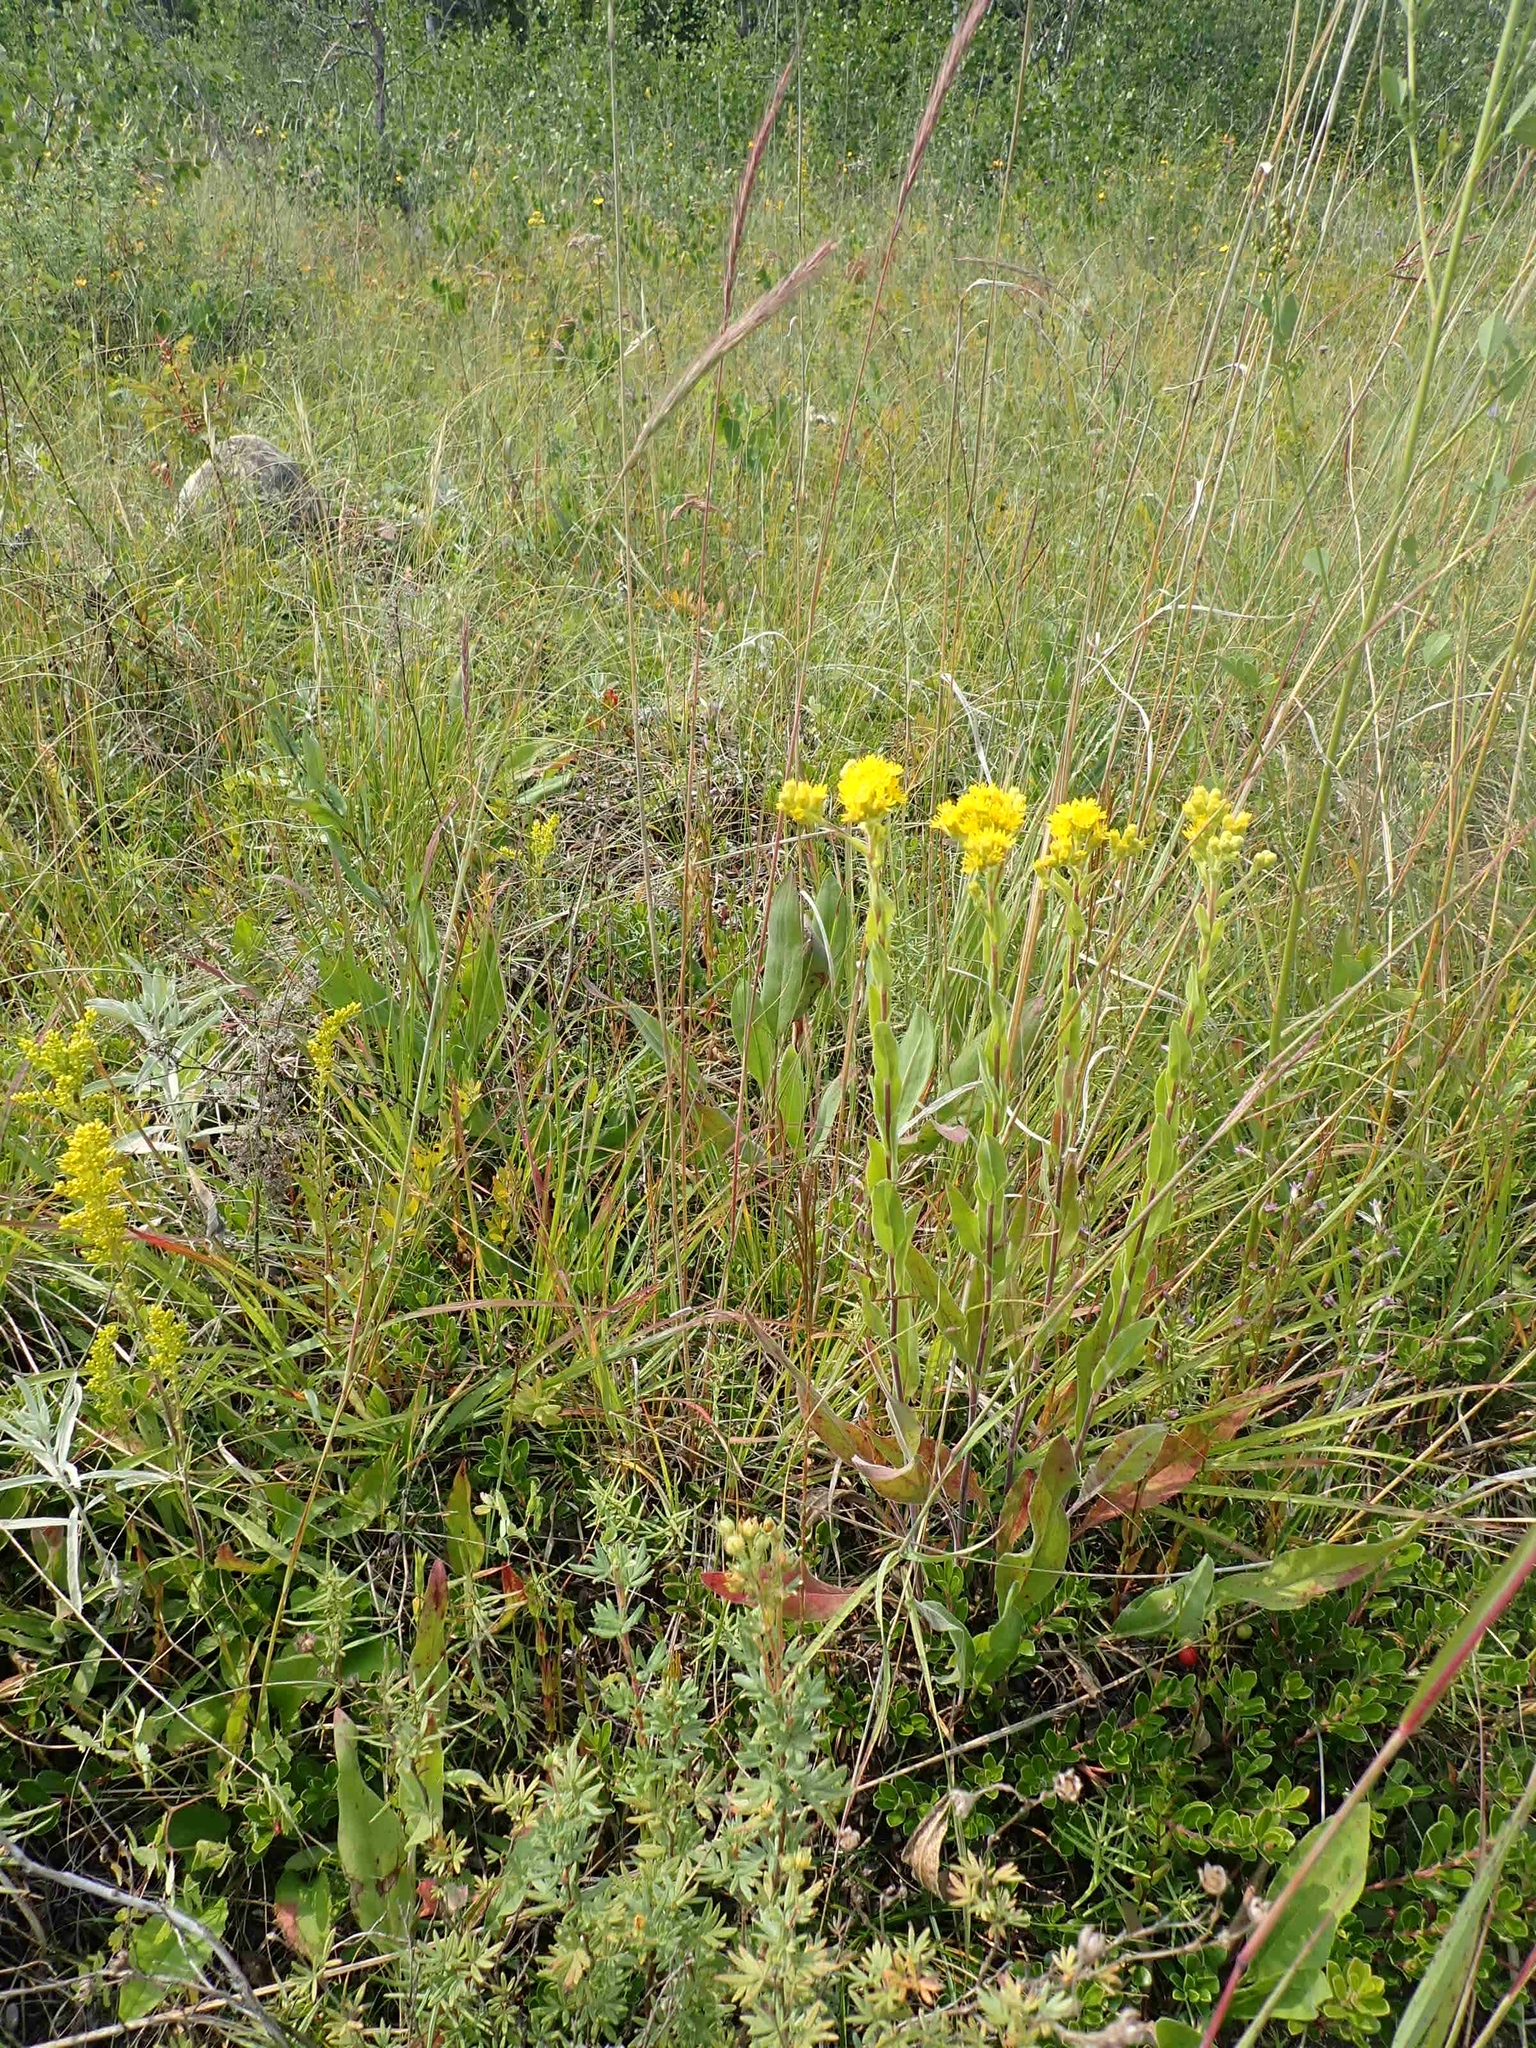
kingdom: Plantae
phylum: Tracheophyta
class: Magnoliopsida
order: Asterales
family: Asteraceae
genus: Solidago
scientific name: Solidago rigida
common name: Rigid goldenrod
